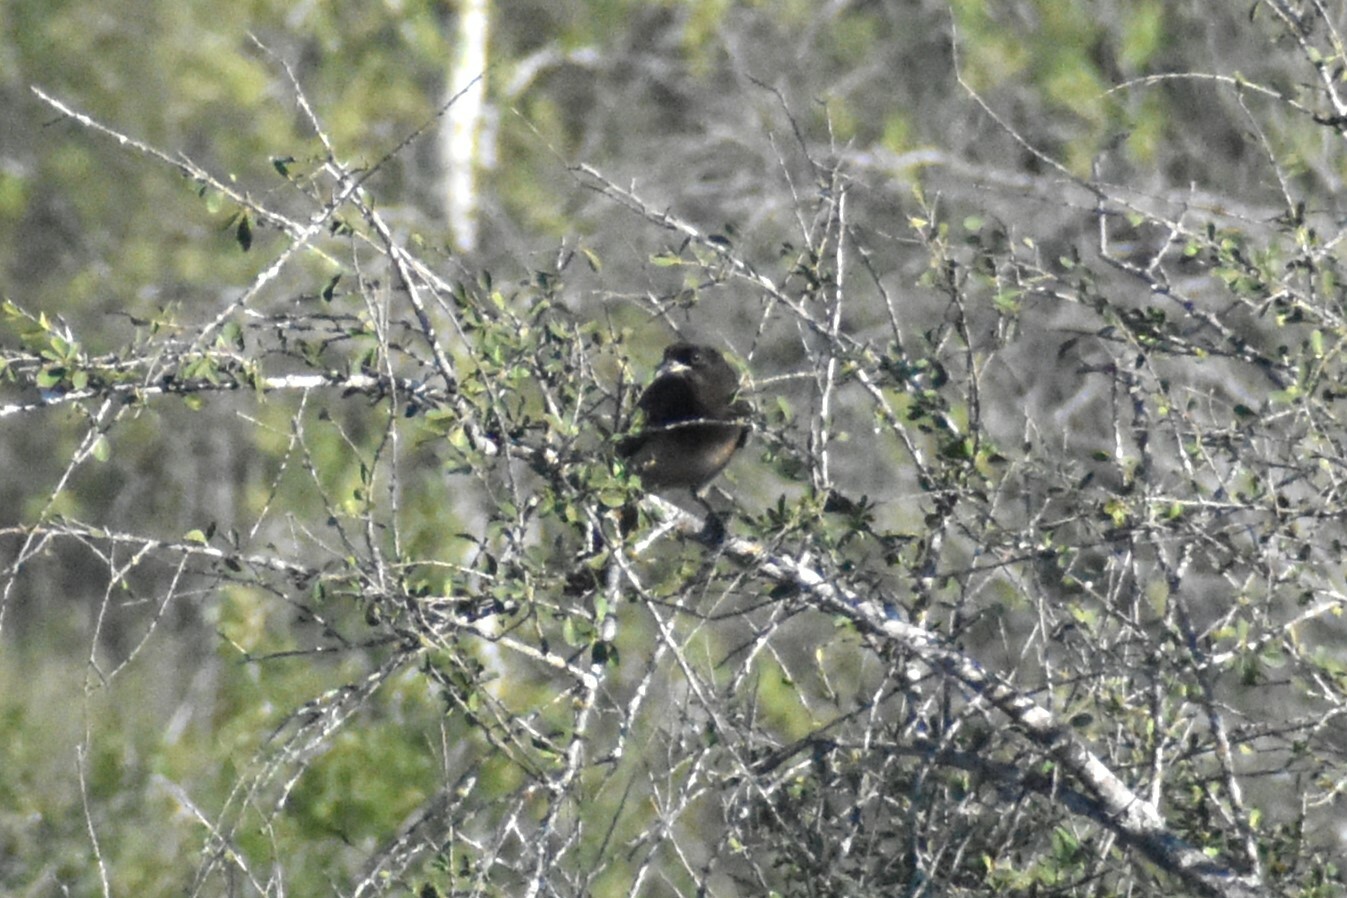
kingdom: Animalia
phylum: Chordata
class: Aves
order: Passeriformes
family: Corvidae
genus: Psilorhinus
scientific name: Psilorhinus morio
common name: Brown jay
